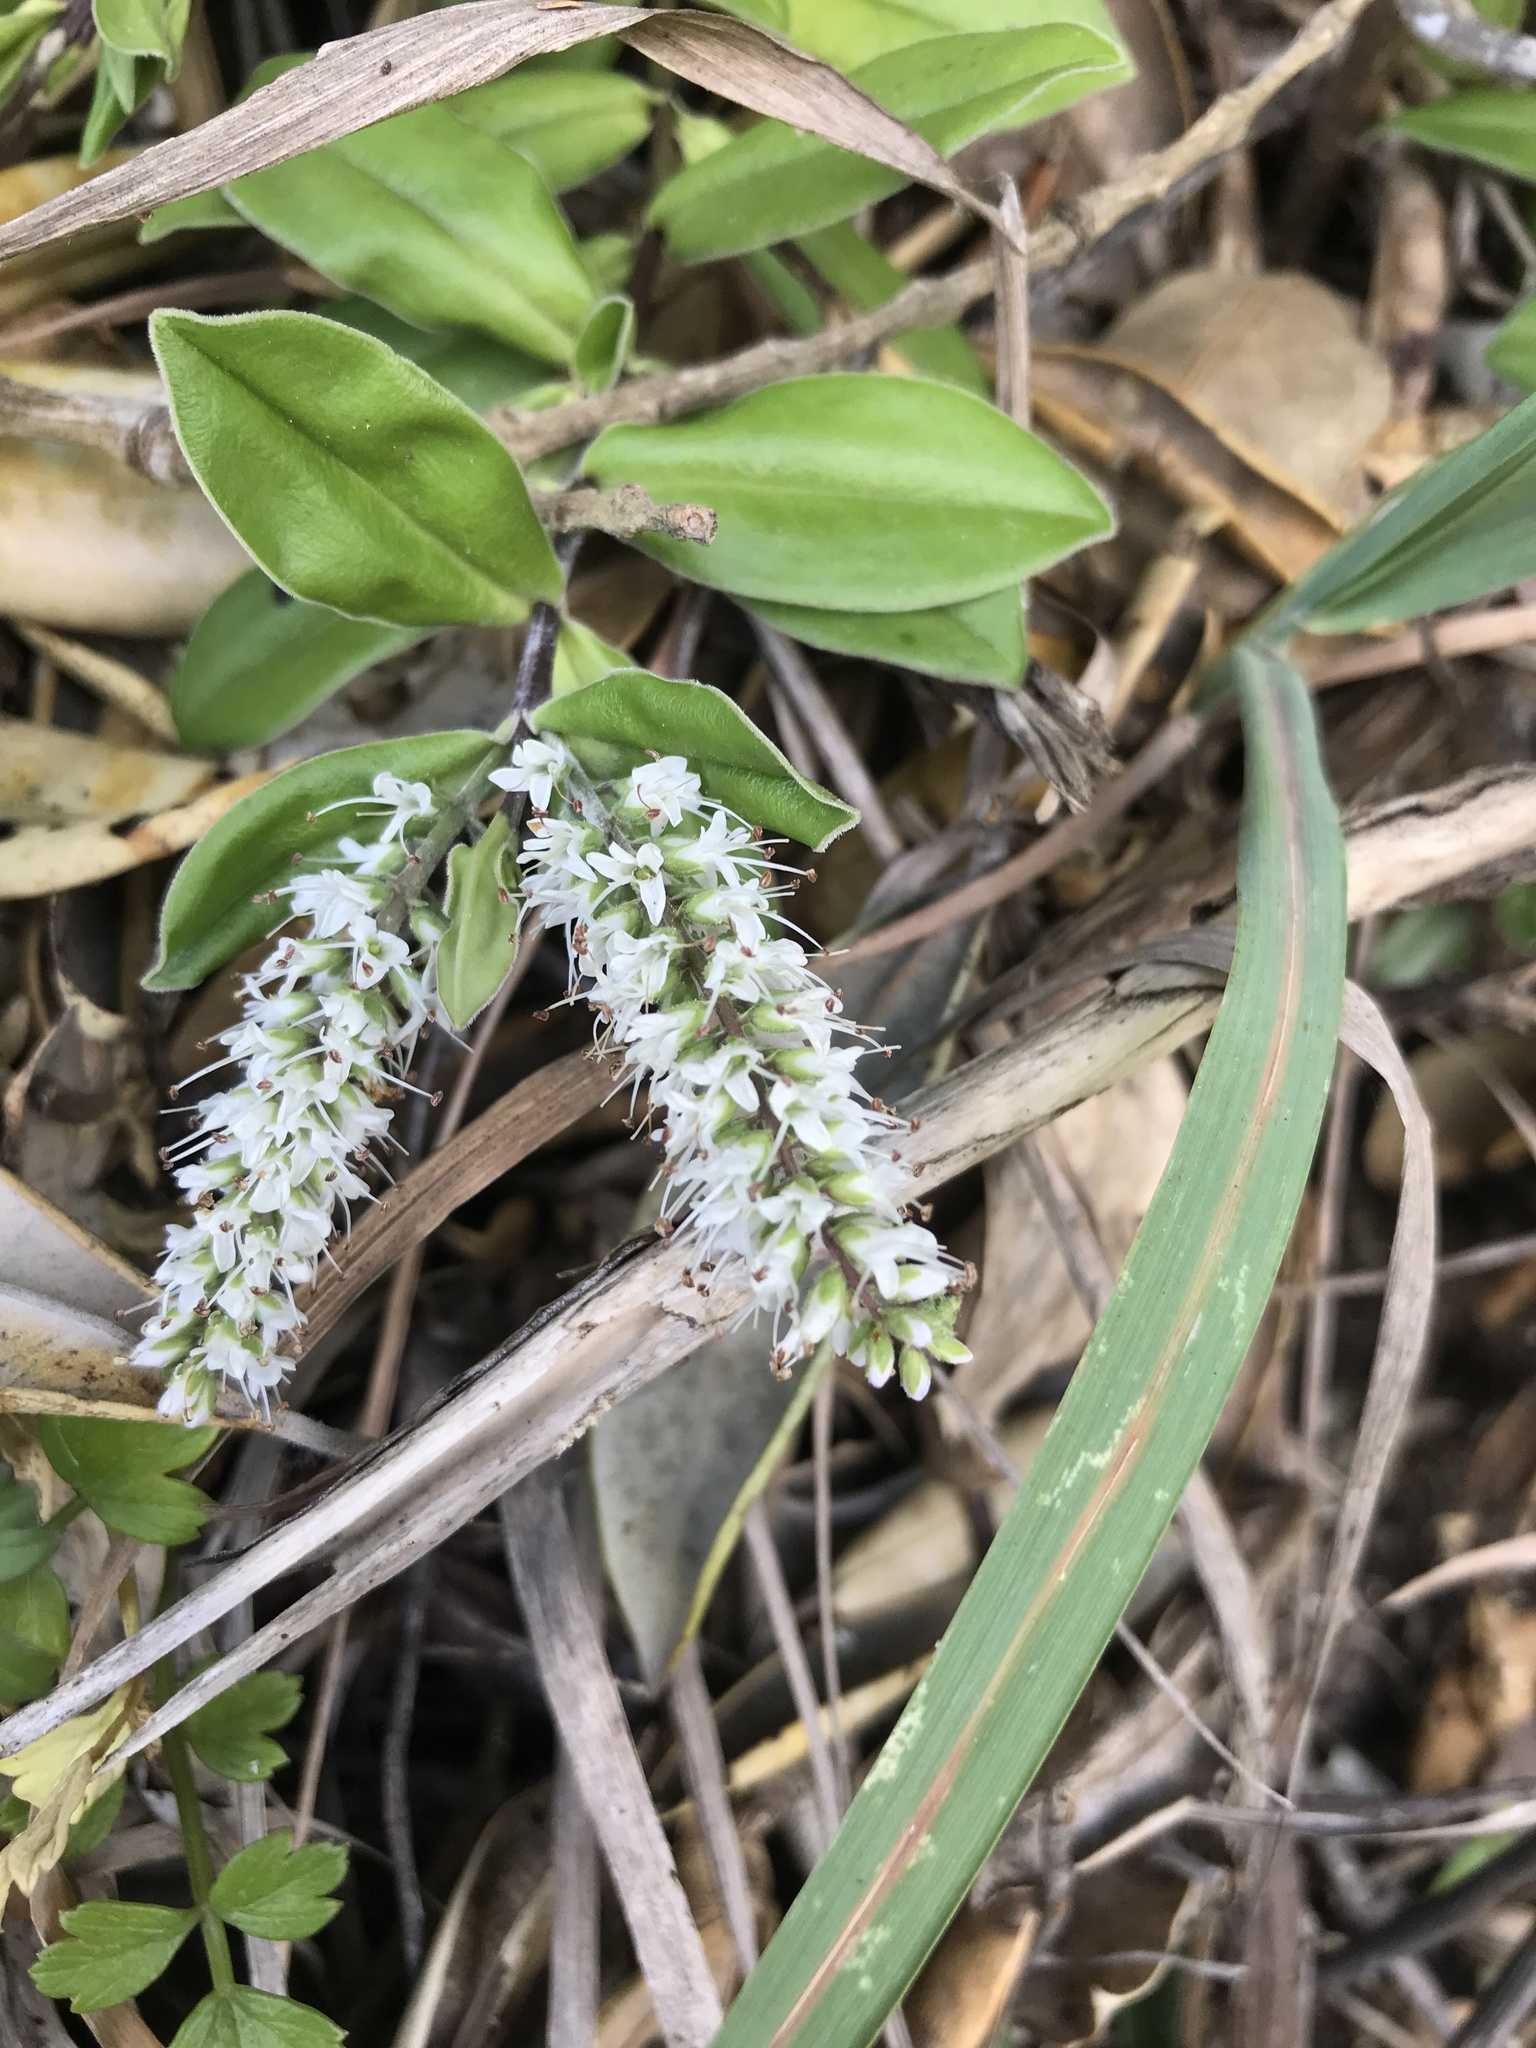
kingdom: Plantae
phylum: Tracheophyta
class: Magnoliopsida
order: Lamiales
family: Plantaginaceae
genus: Veronica
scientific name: Veronica obtusata
